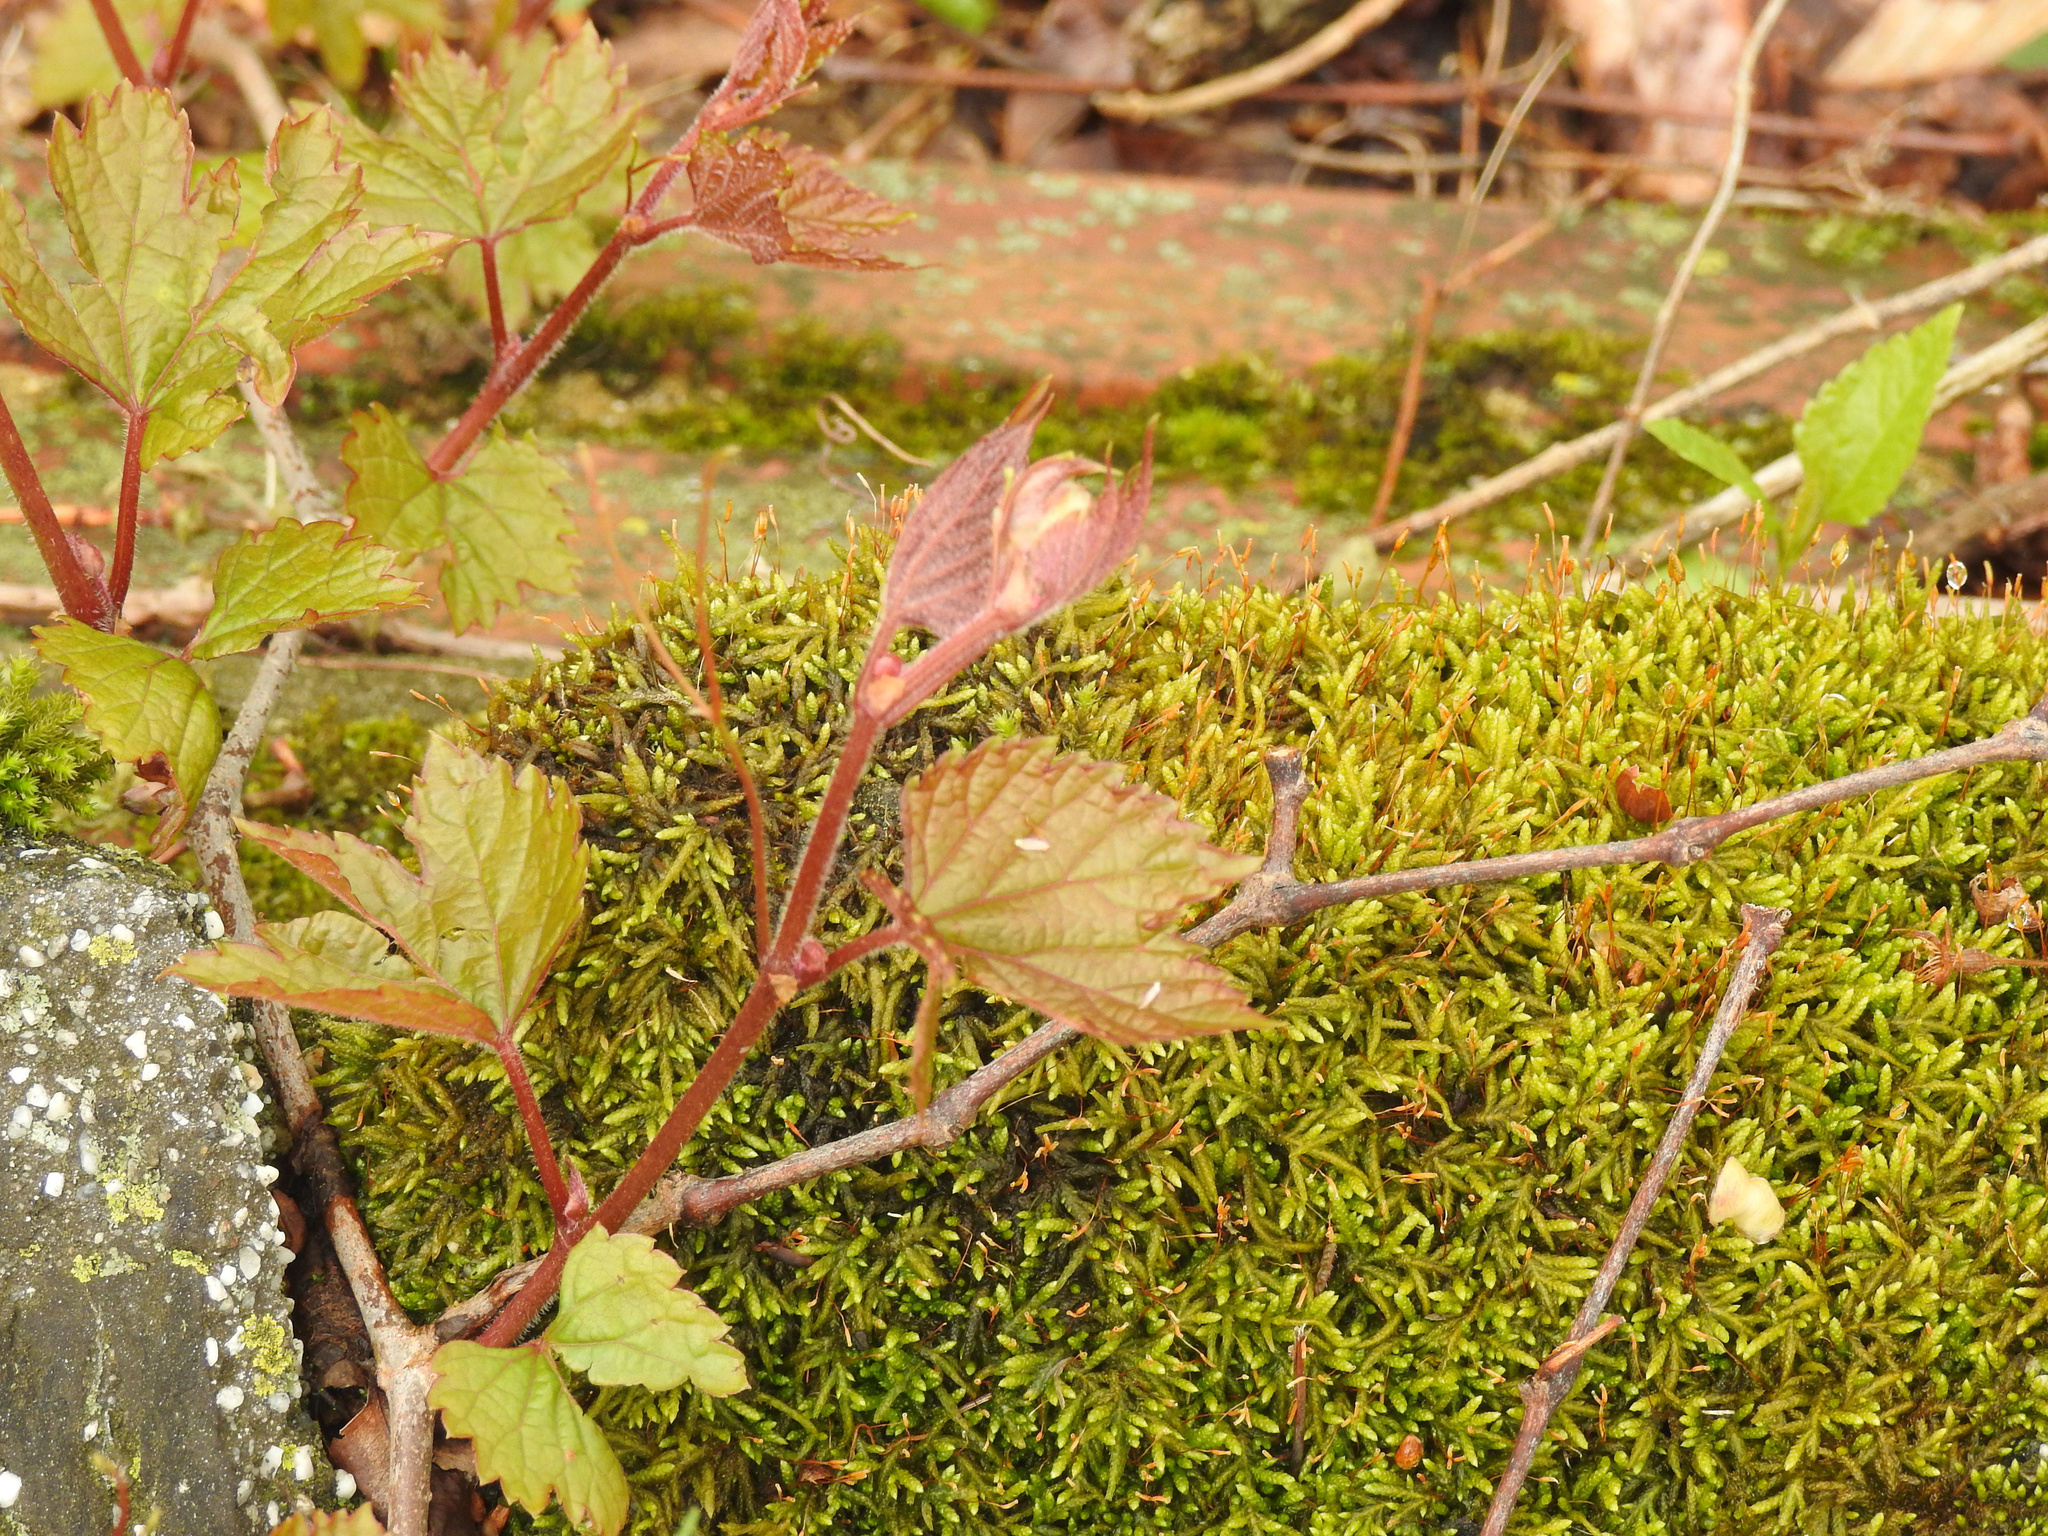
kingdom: Plantae
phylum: Tracheophyta
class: Magnoliopsida
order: Vitales
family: Vitaceae
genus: Ampelopsis
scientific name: Ampelopsis glandulosa
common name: Amur peppervine
